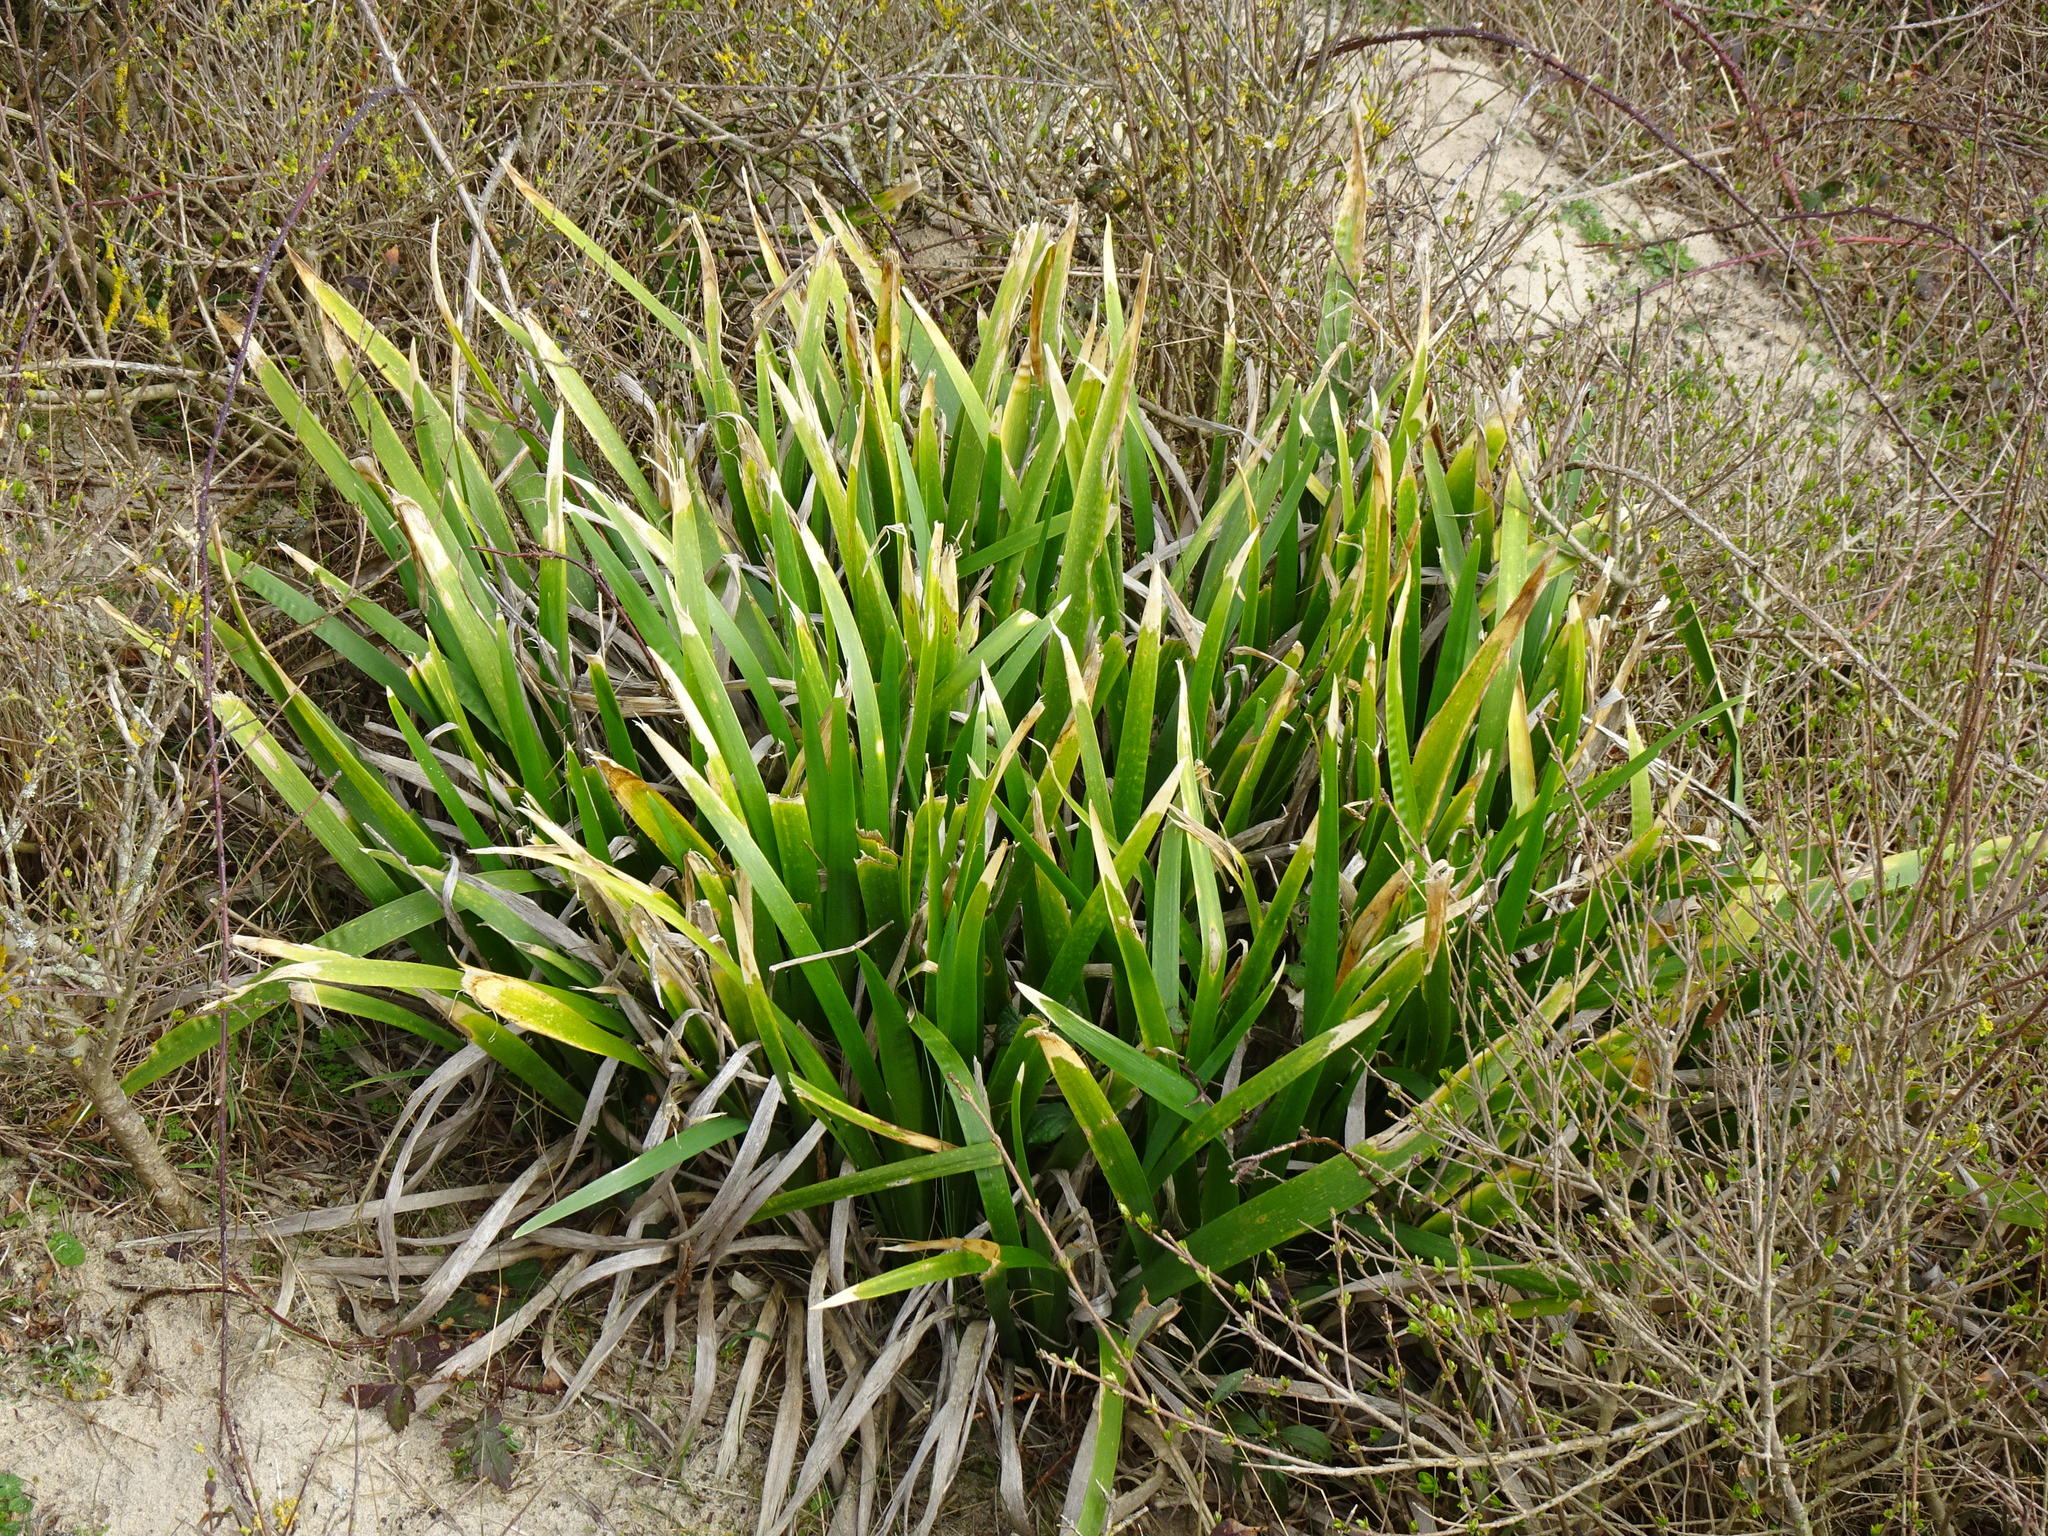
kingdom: Plantae
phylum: Tracheophyta
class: Liliopsida
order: Asparagales
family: Iridaceae
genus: Iris
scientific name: Iris foetidissima
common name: Stinking iris
